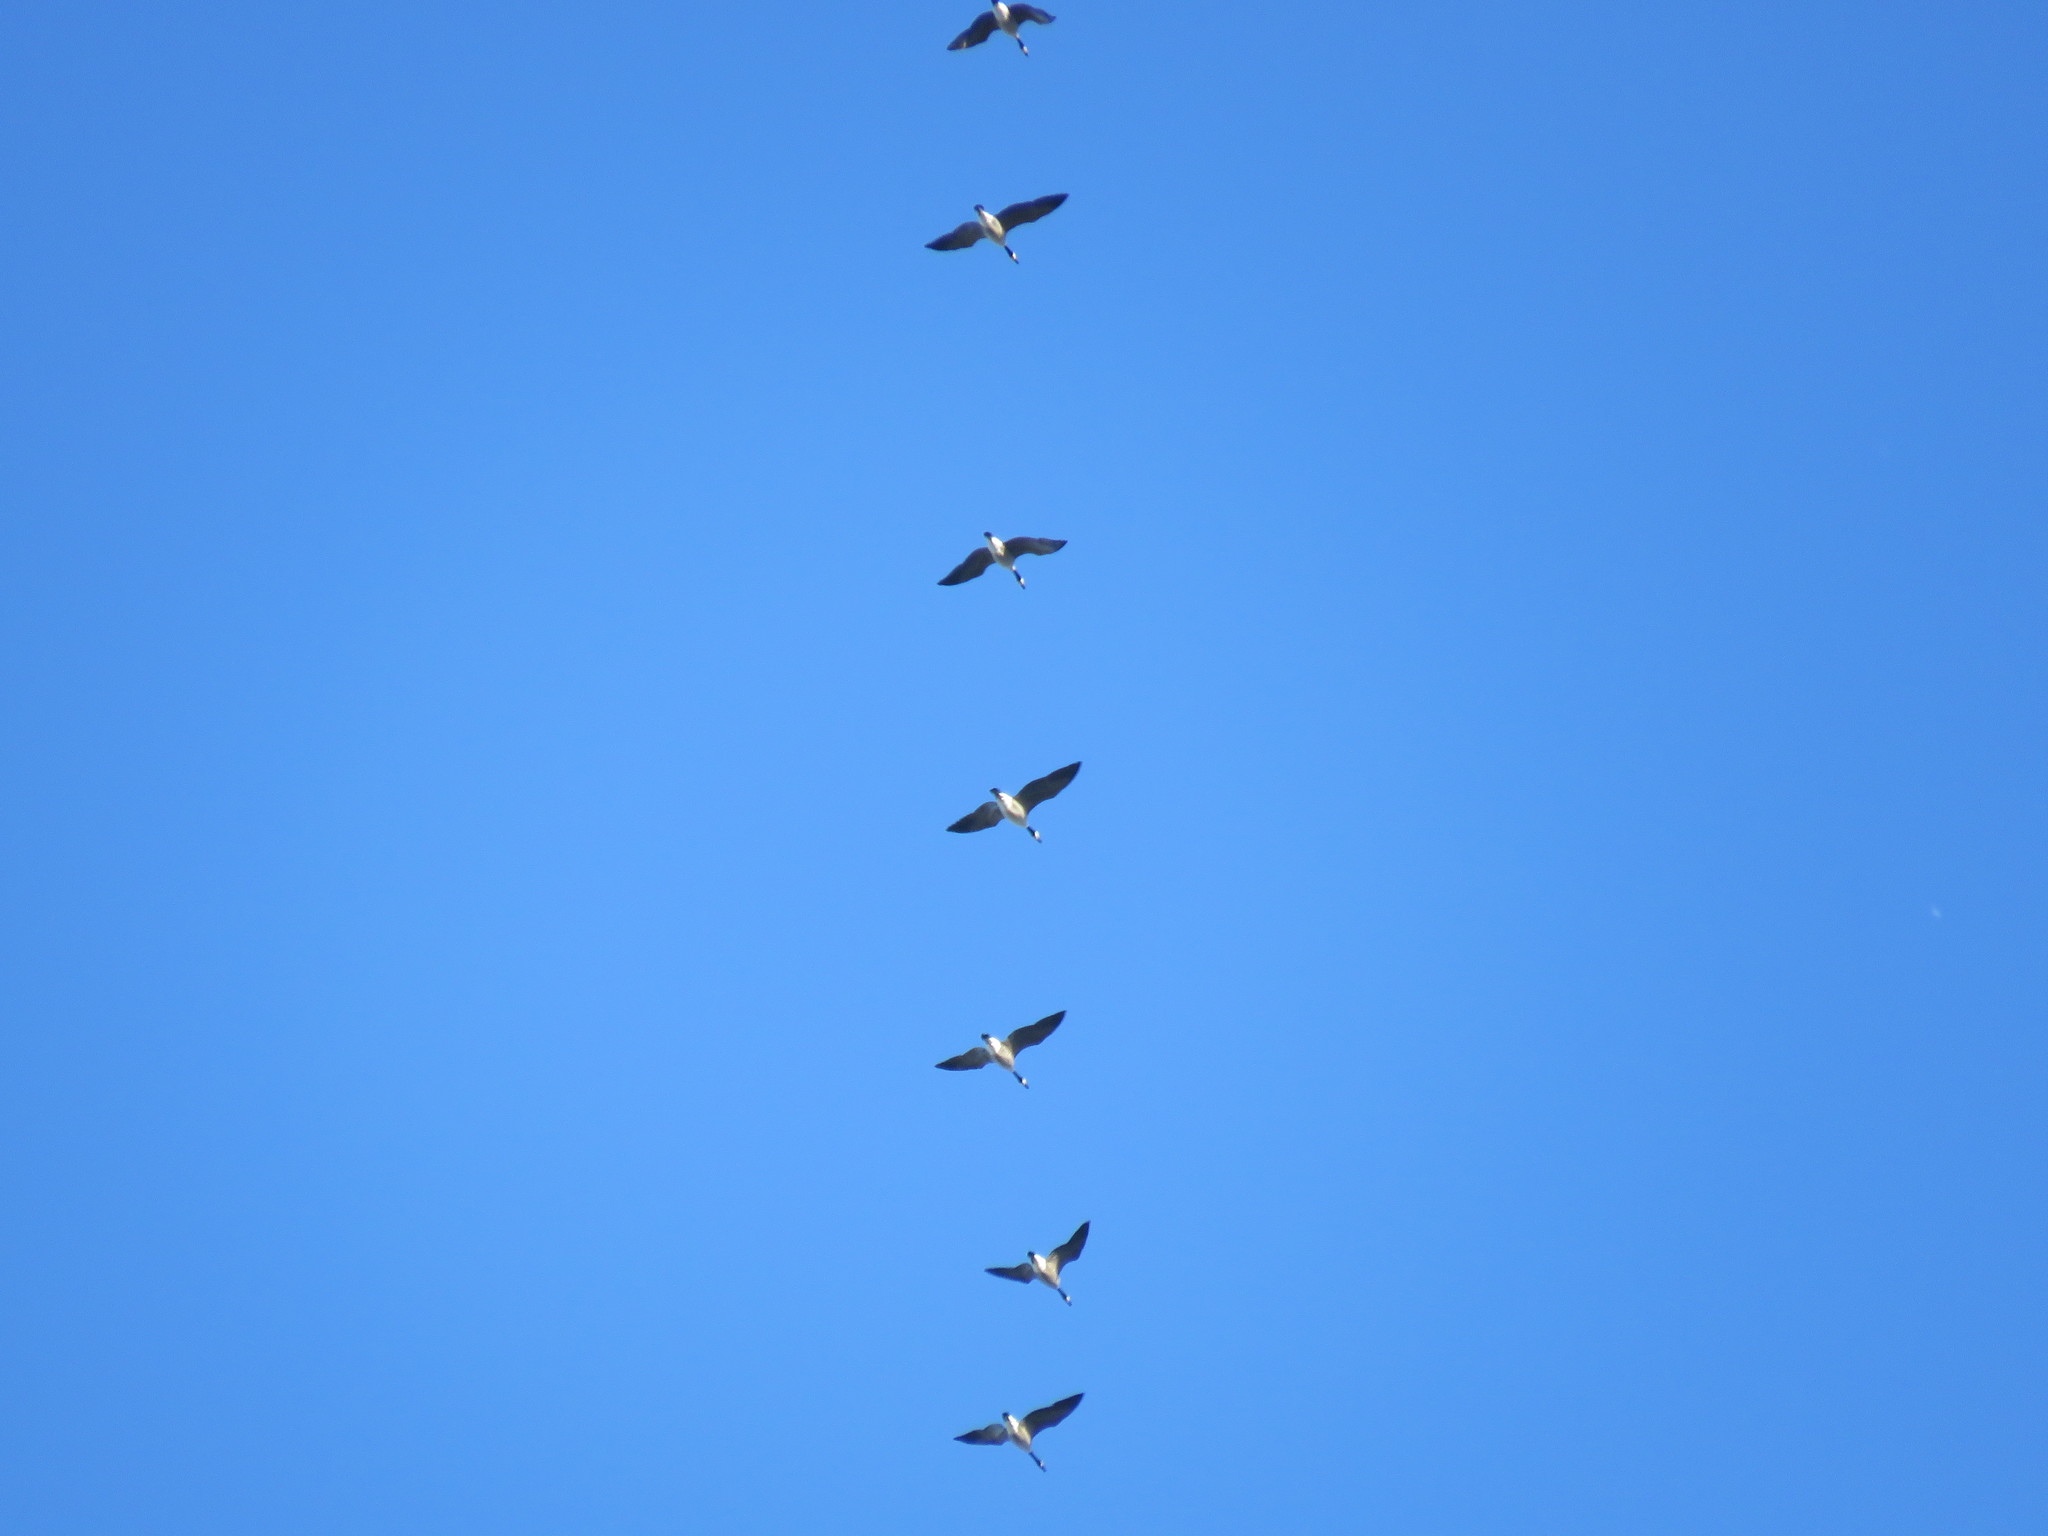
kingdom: Animalia
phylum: Chordata
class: Aves
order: Anseriformes
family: Anatidae
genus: Branta
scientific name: Branta canadensis
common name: Canada goose
